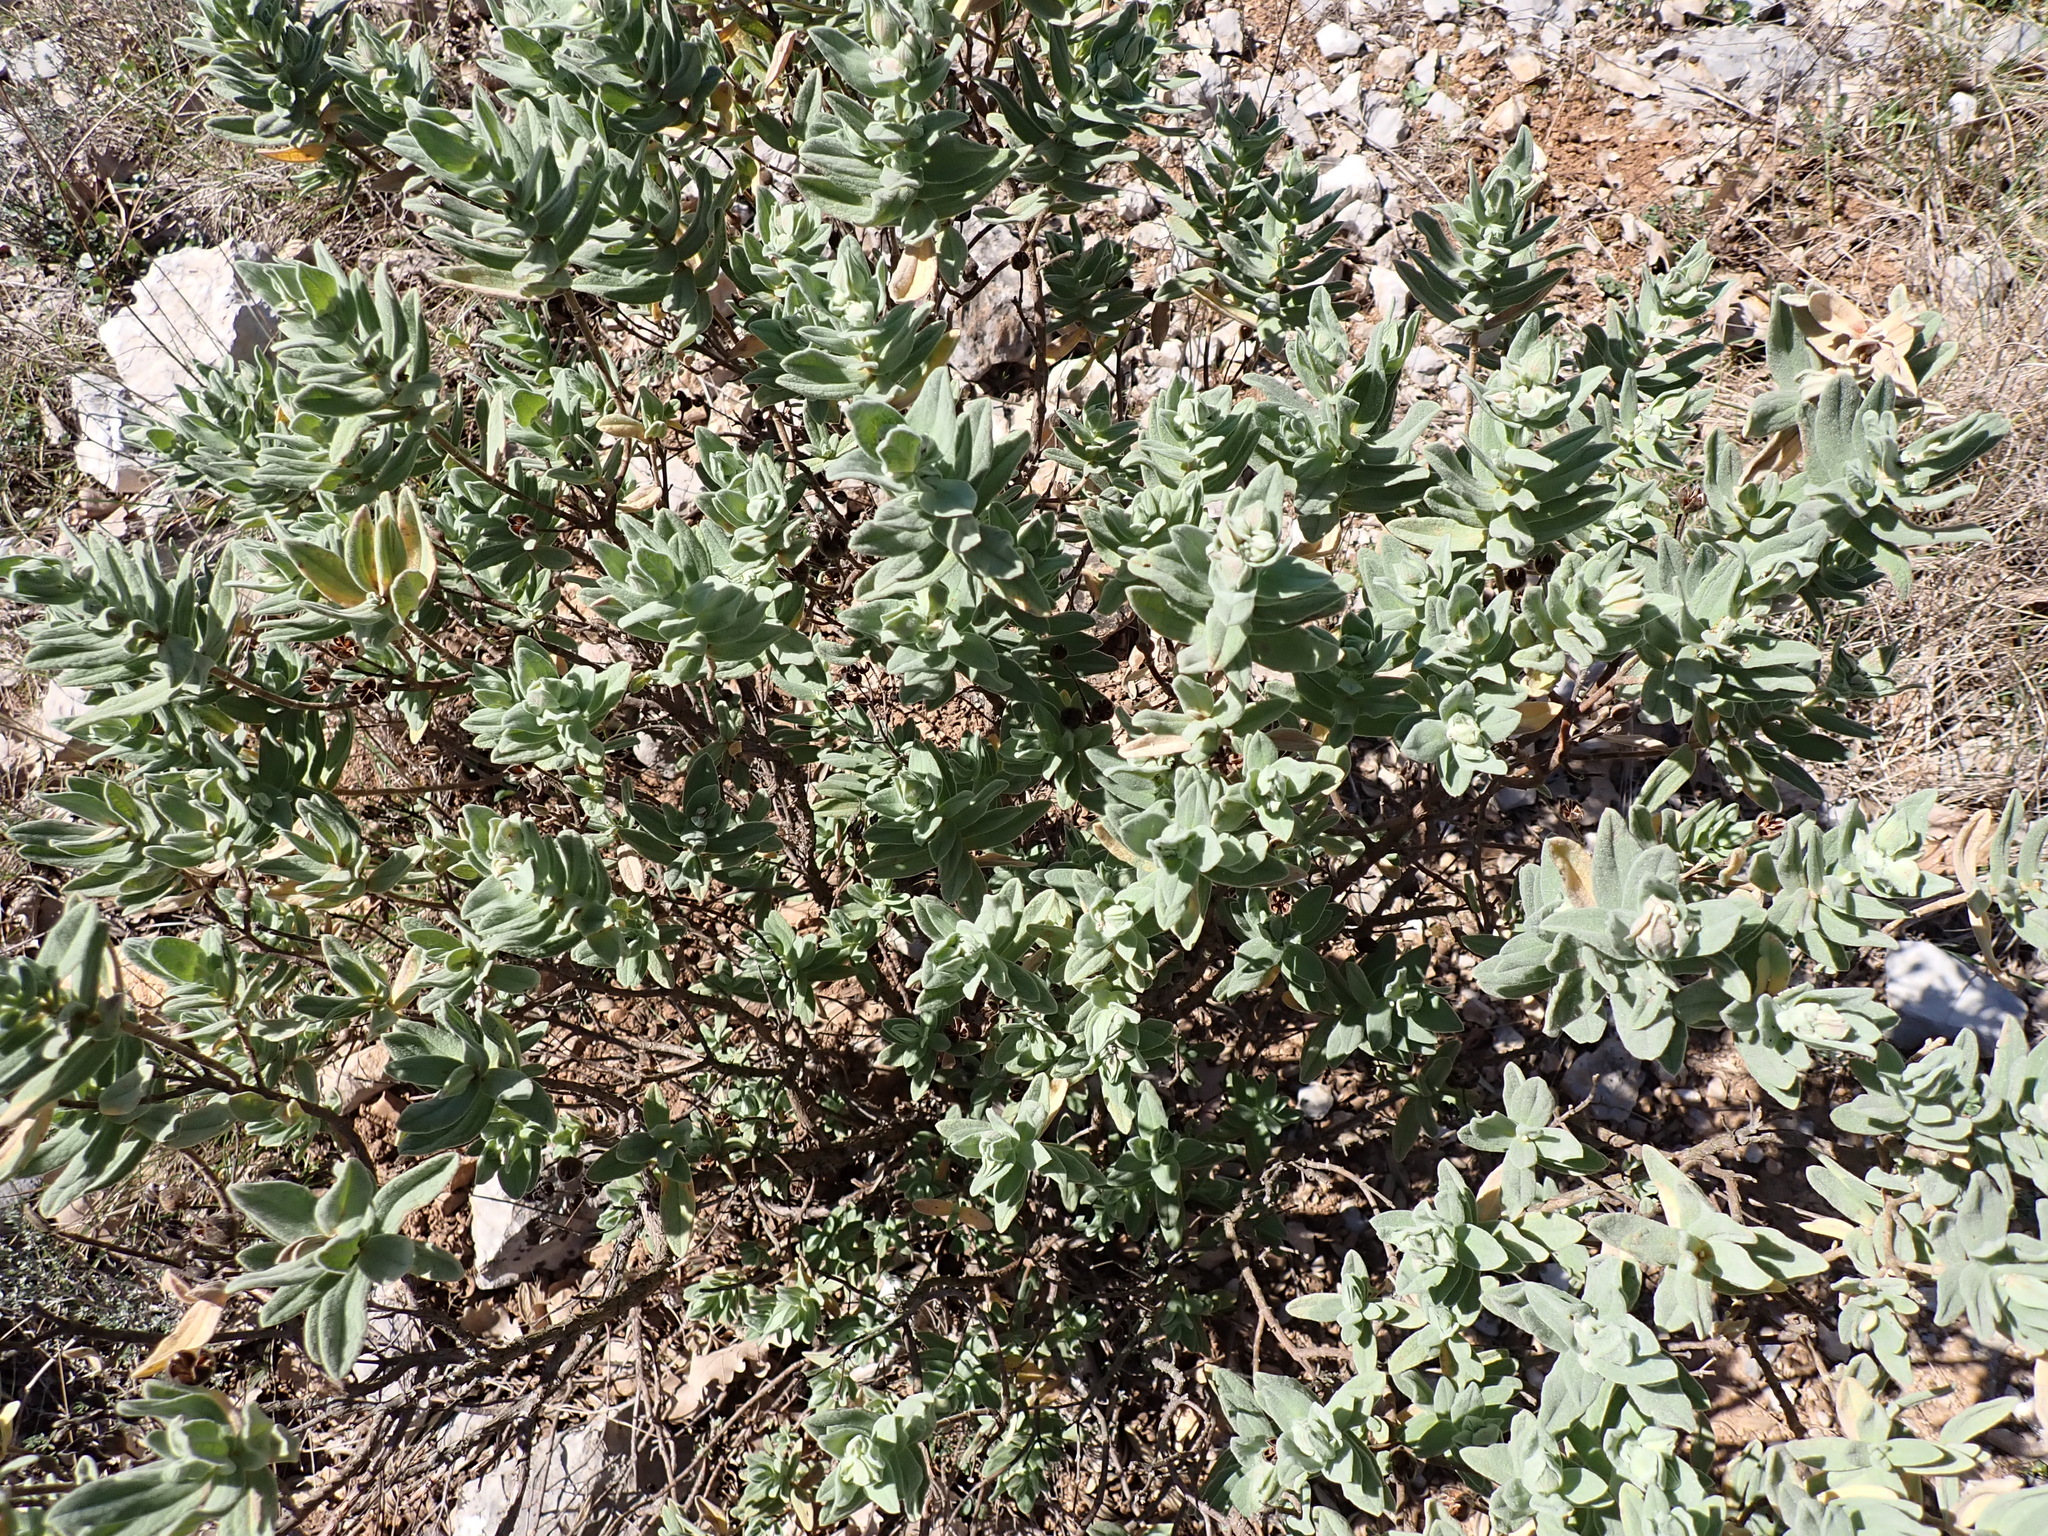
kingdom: Plantae
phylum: Tracheophyta
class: Magnoliopsida
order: Malvales
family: Cistaceae
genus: Cistus
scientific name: Cistus albidus
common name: White-leaf rock-rose
